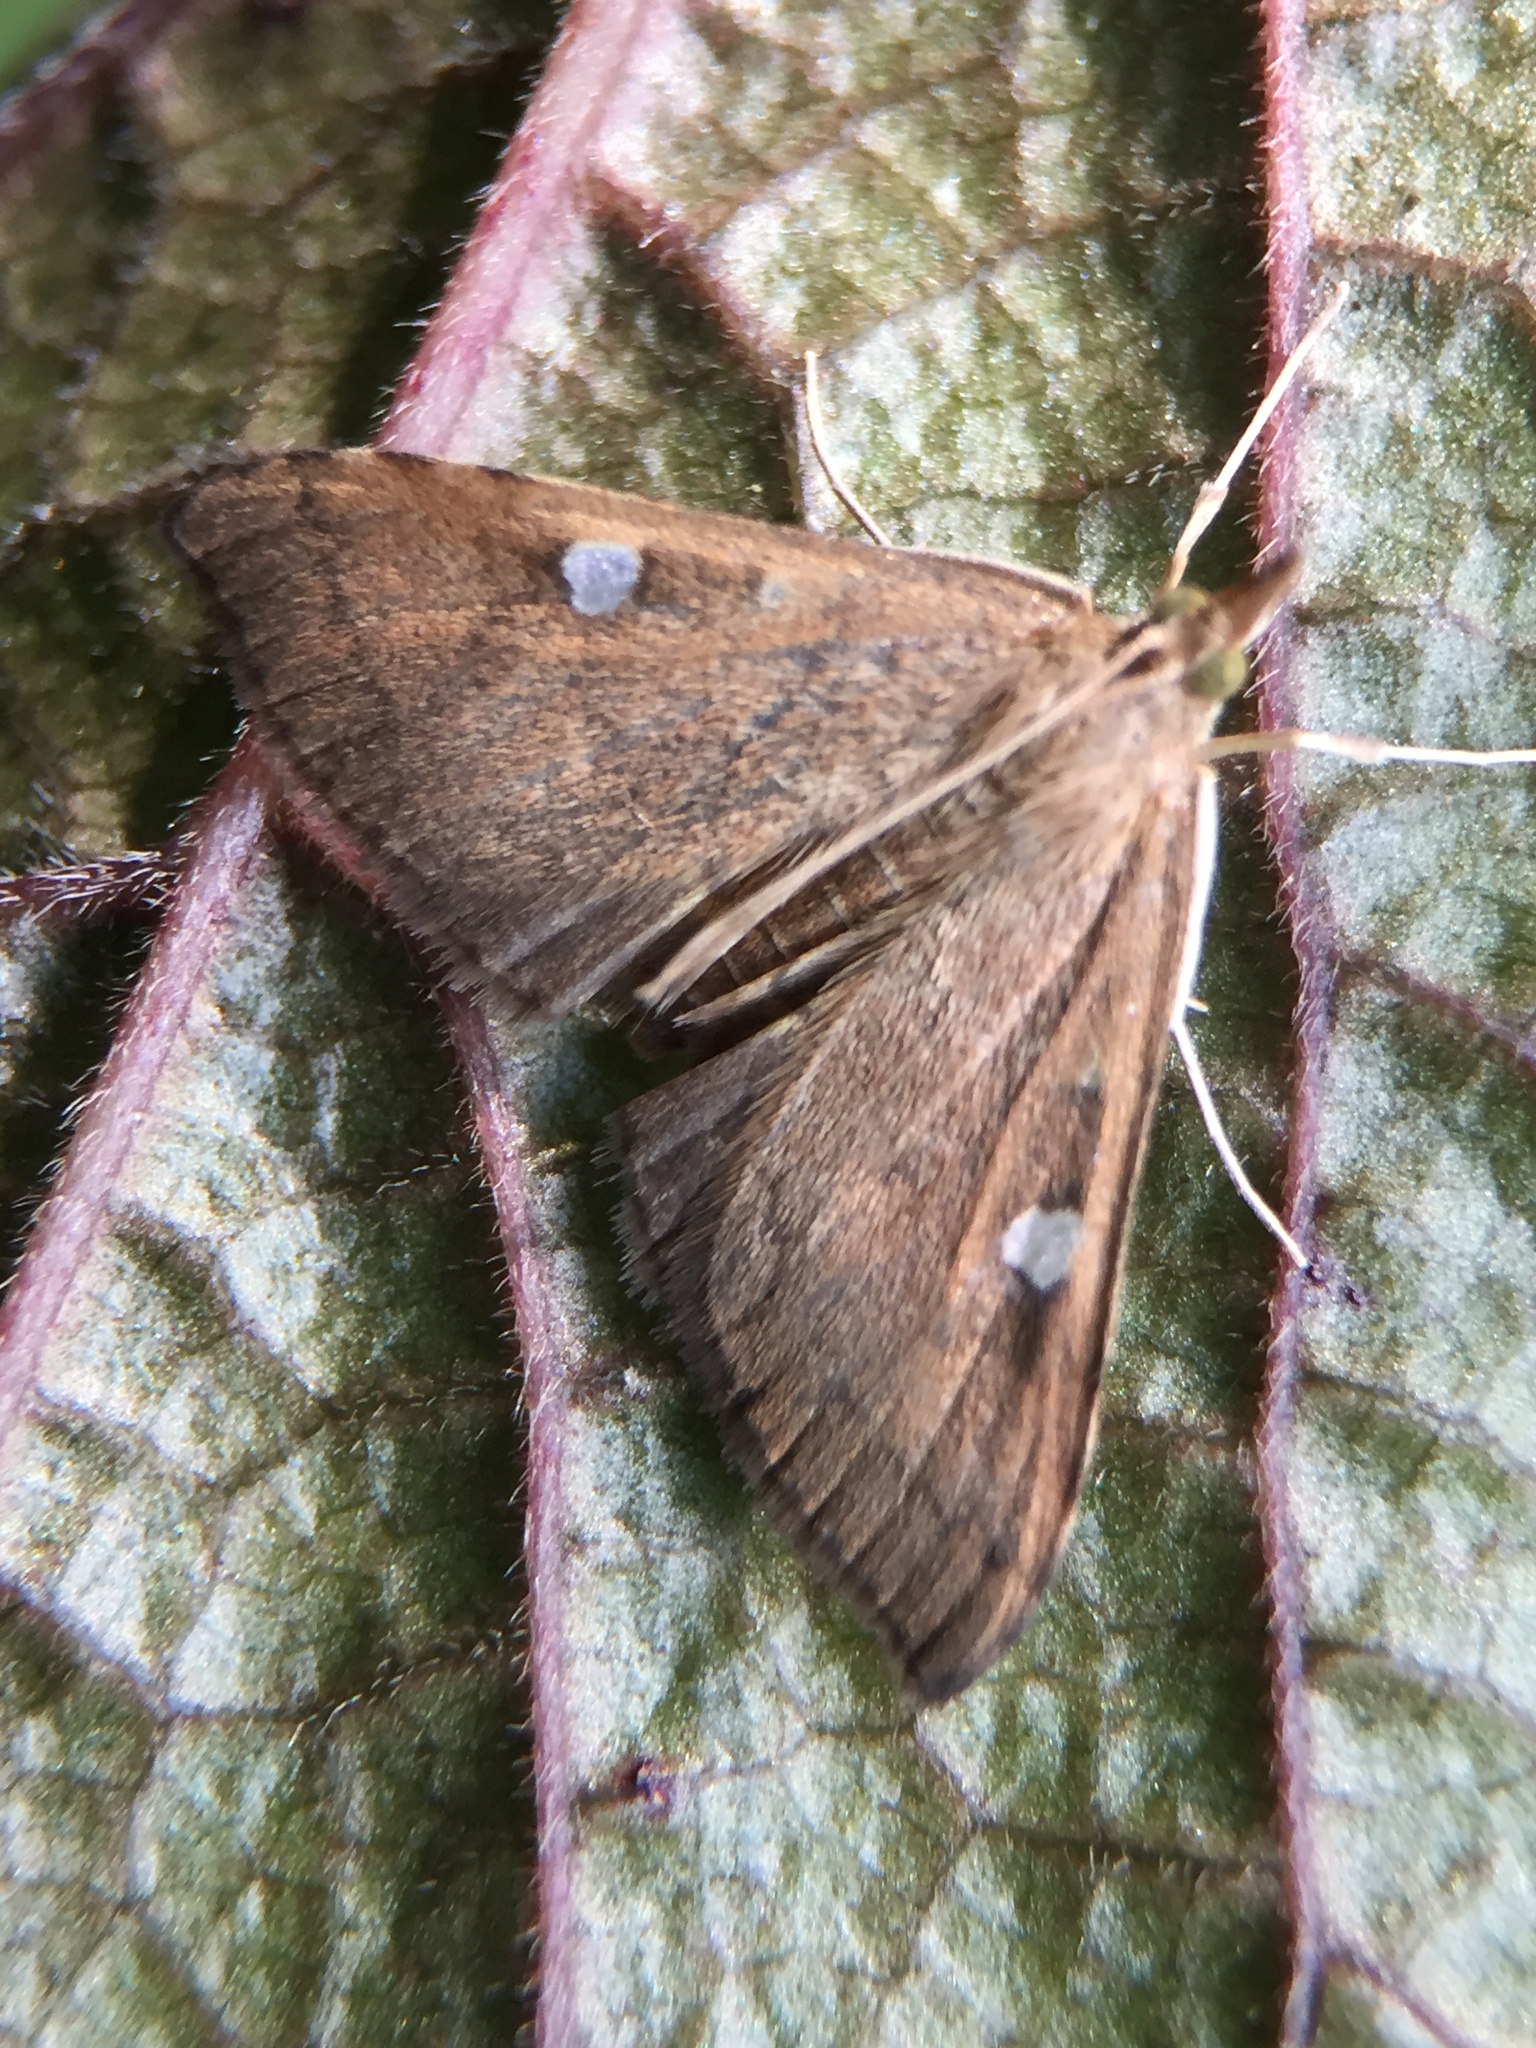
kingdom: Animalia
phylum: Arthropoda
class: Insecta
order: Lepidoptera
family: Crambidae
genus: Udea
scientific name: Udea Mnesictena marmarina
